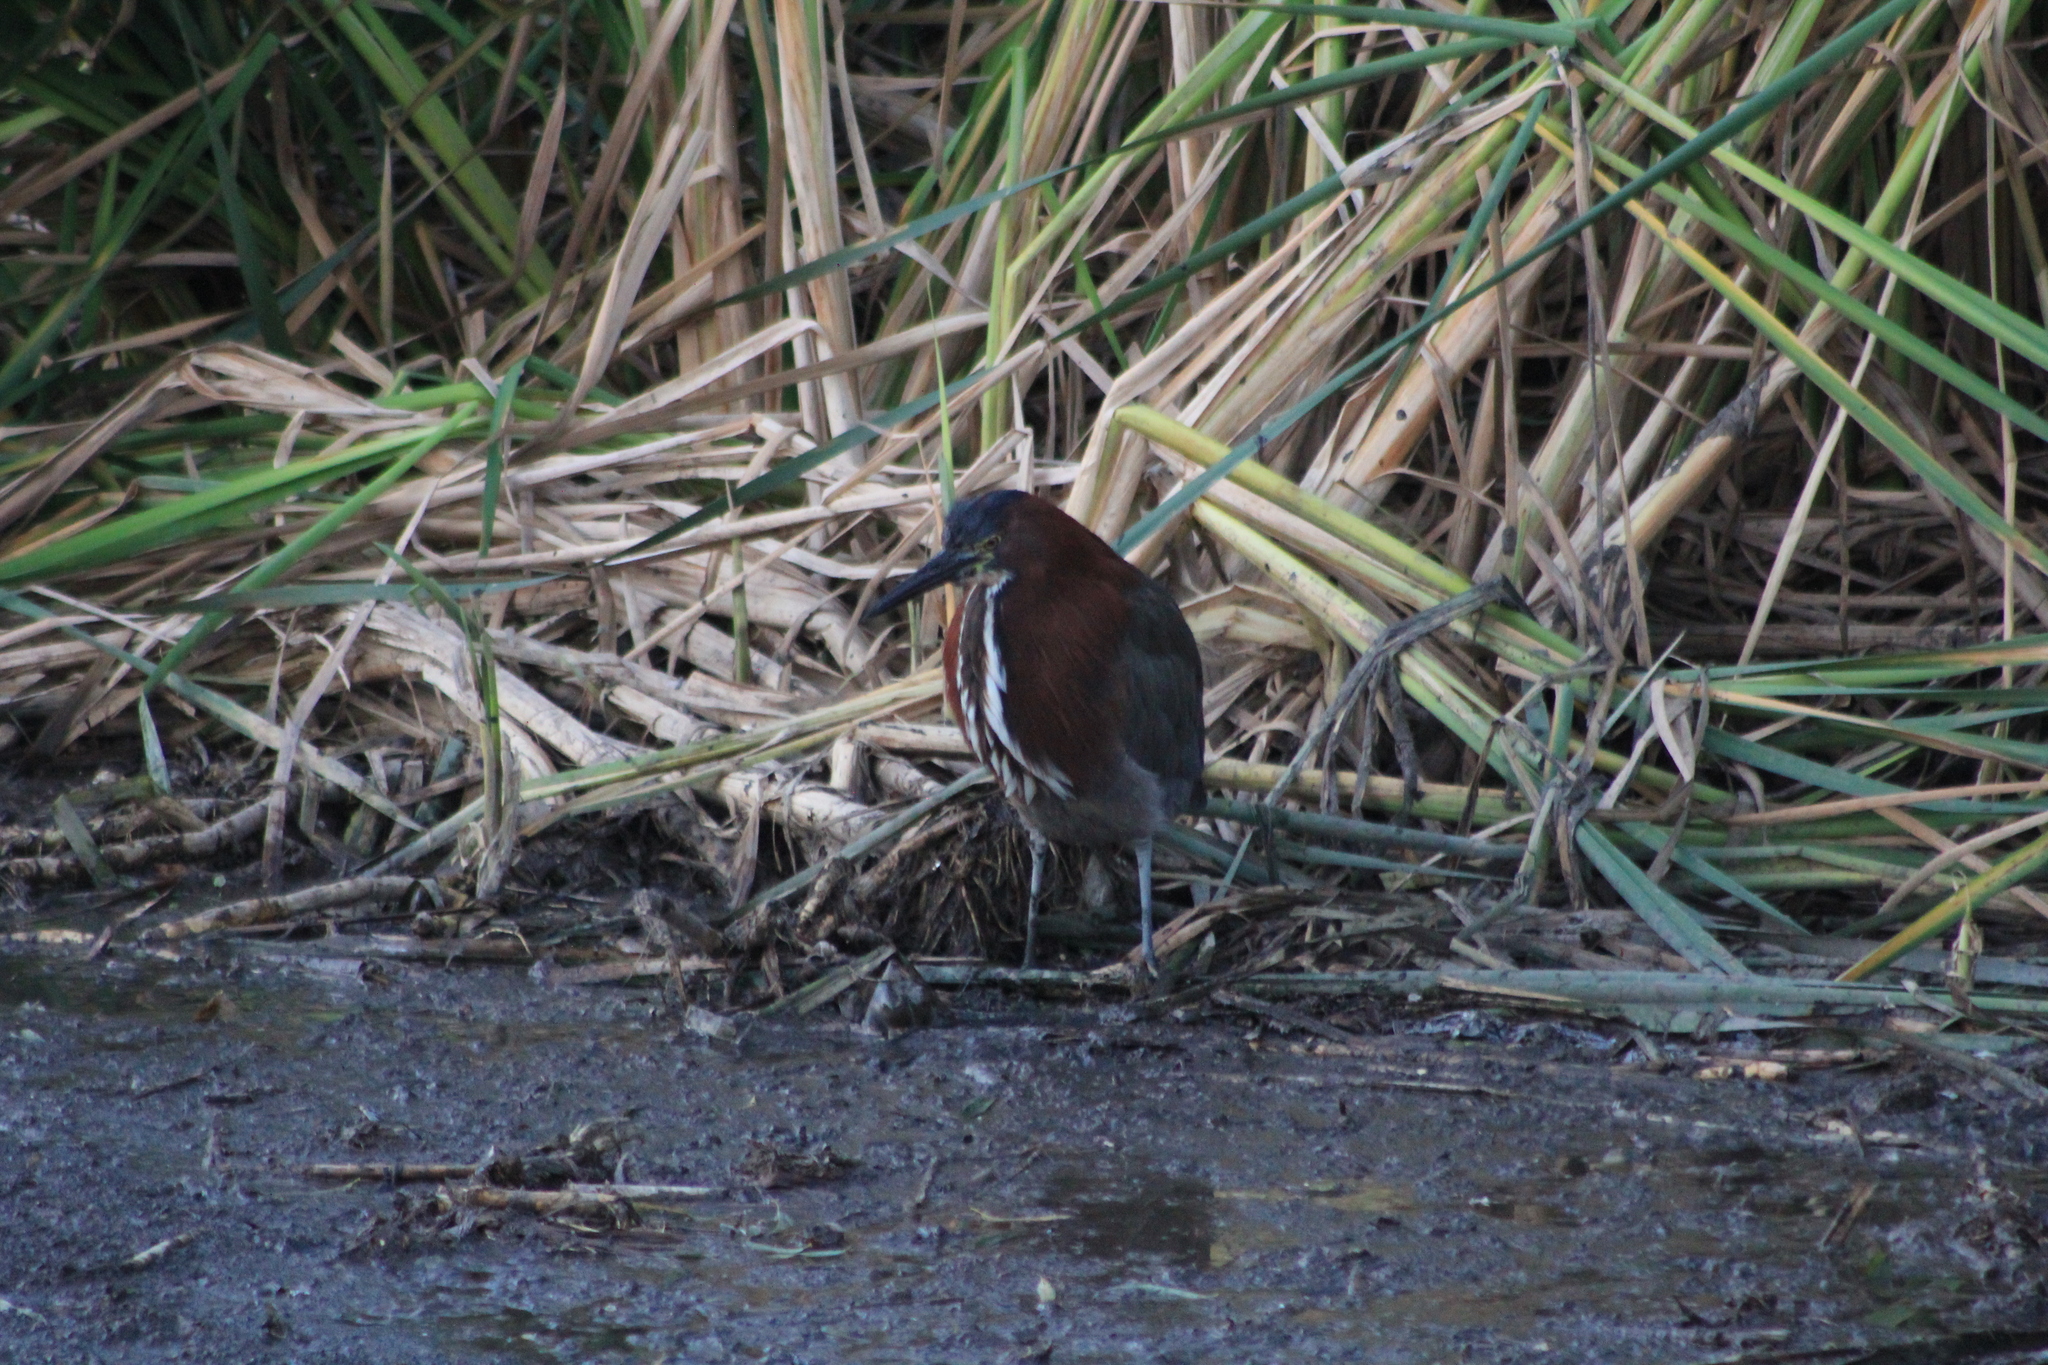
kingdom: Animalia
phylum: Chordata
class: Aves
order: Pelecaniformes
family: Ardeidae
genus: Tigrisoma
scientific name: Tigrisoma lineatum
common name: Rufescent tiger-heron
